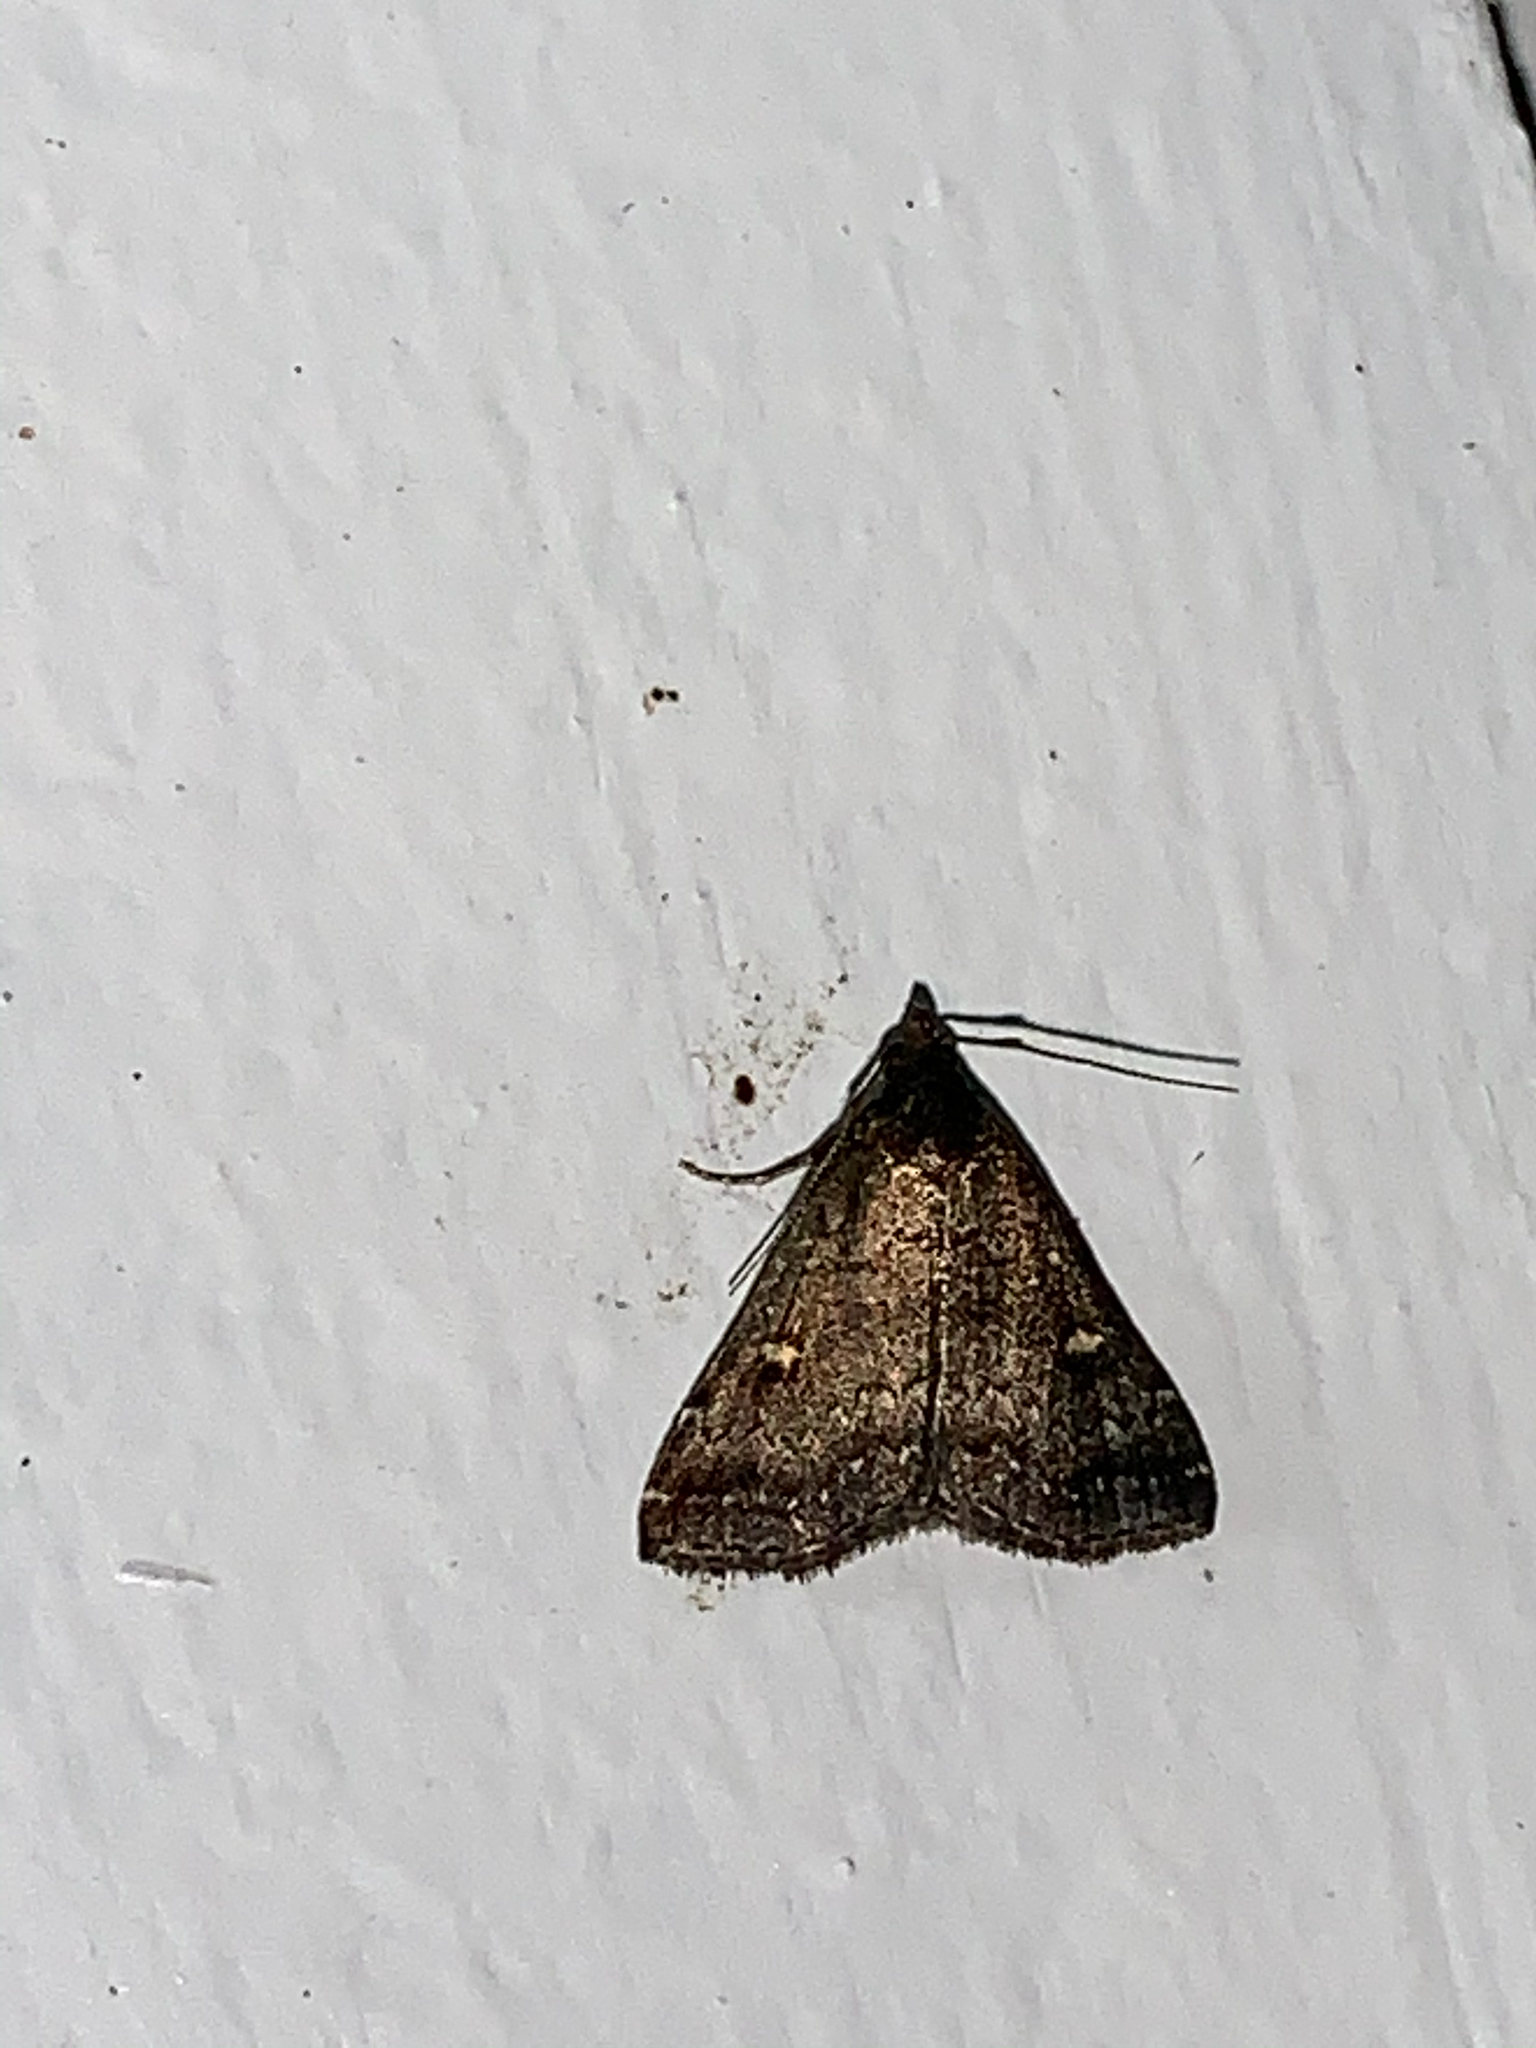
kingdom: Animalia
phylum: Arthropoda
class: Insecta
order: Lepidoptera
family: Erebidae
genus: Tetanolita
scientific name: Tetanolita mynesalis
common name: Smoky tetanolita moth
